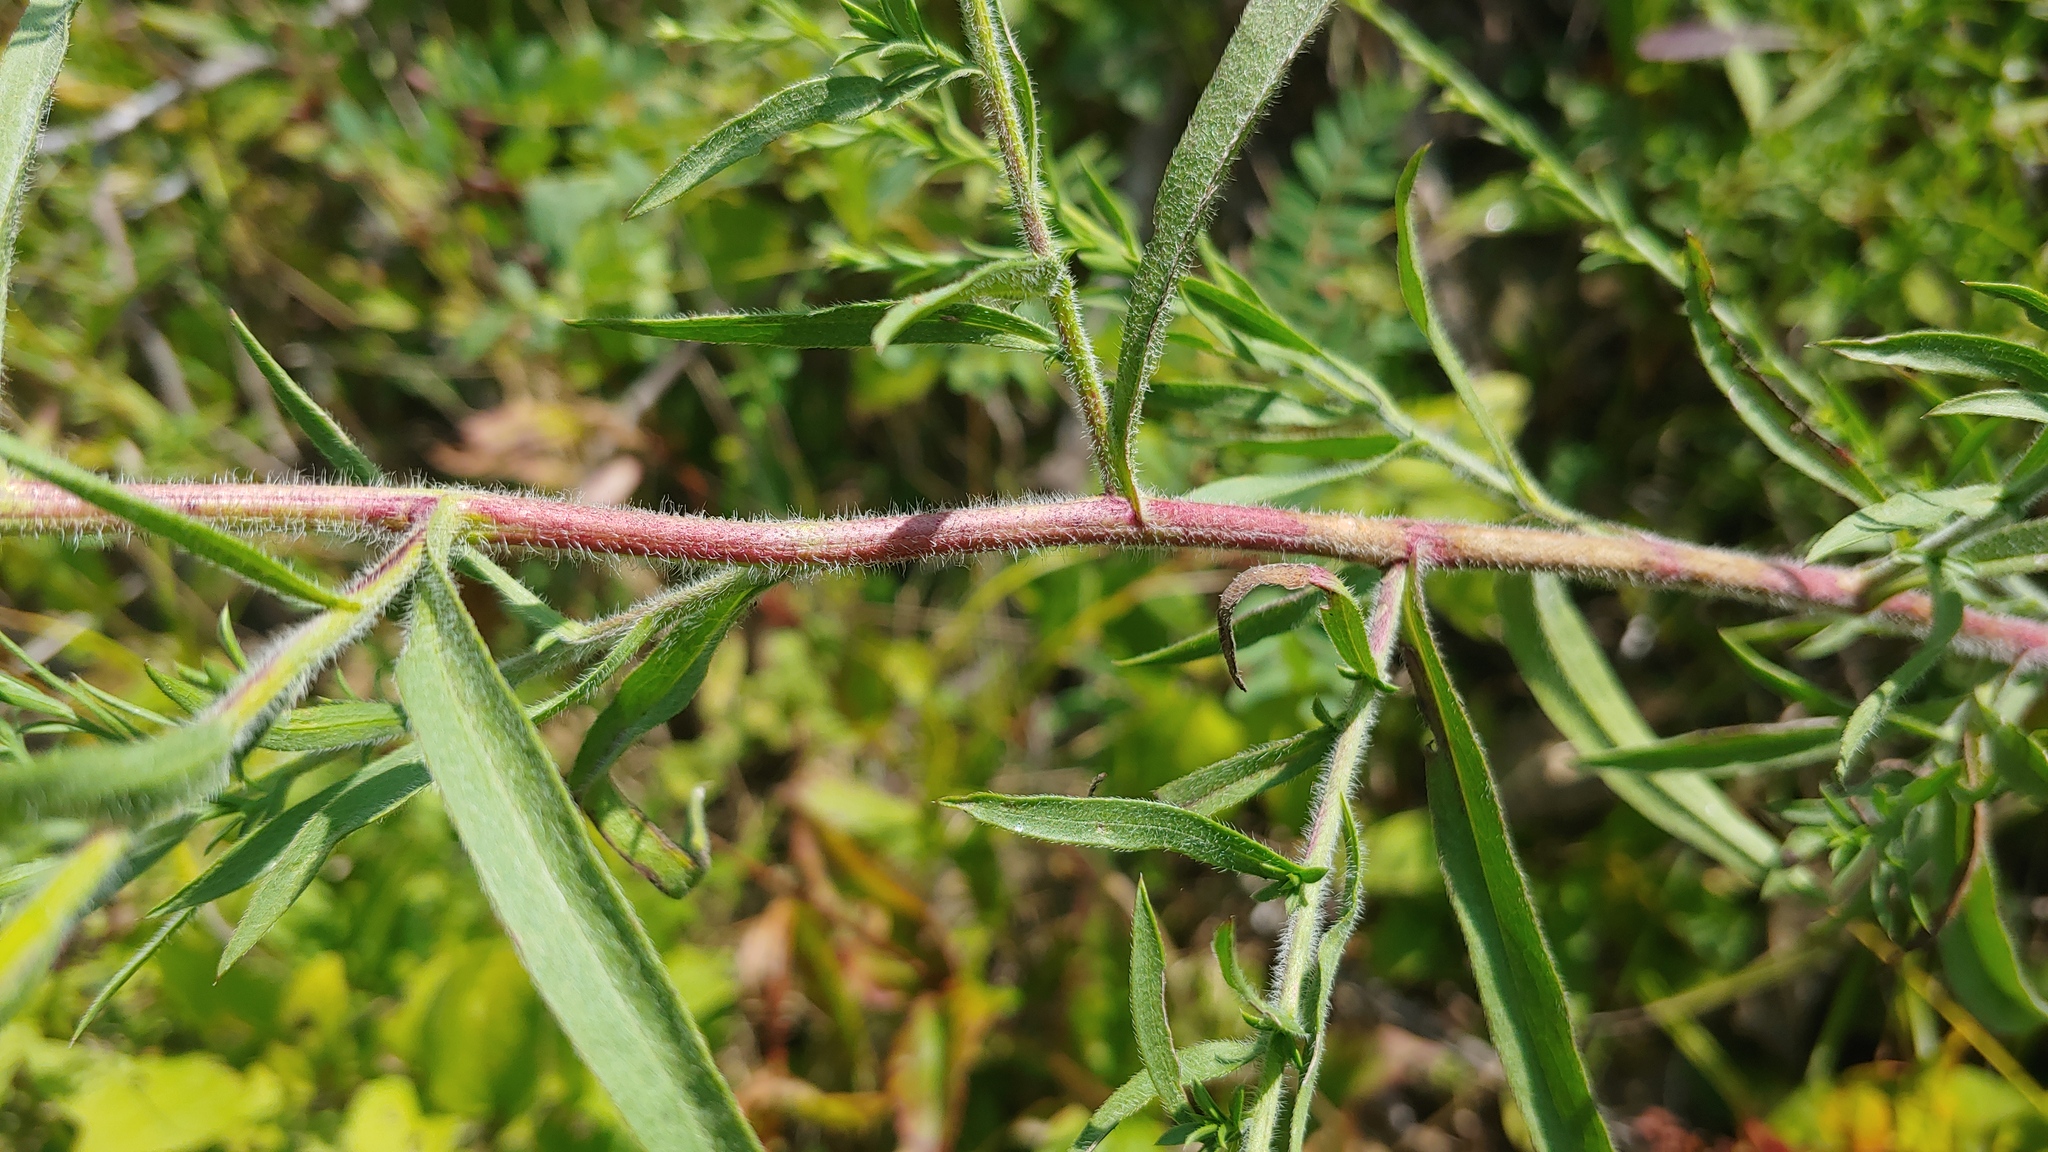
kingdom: Plantae
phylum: Tracheophyta
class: Magnoliopsida
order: Asterales
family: Asteraceae
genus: Symphyotrichum
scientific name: Symphyotrichum pilosum
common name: Awl aster
